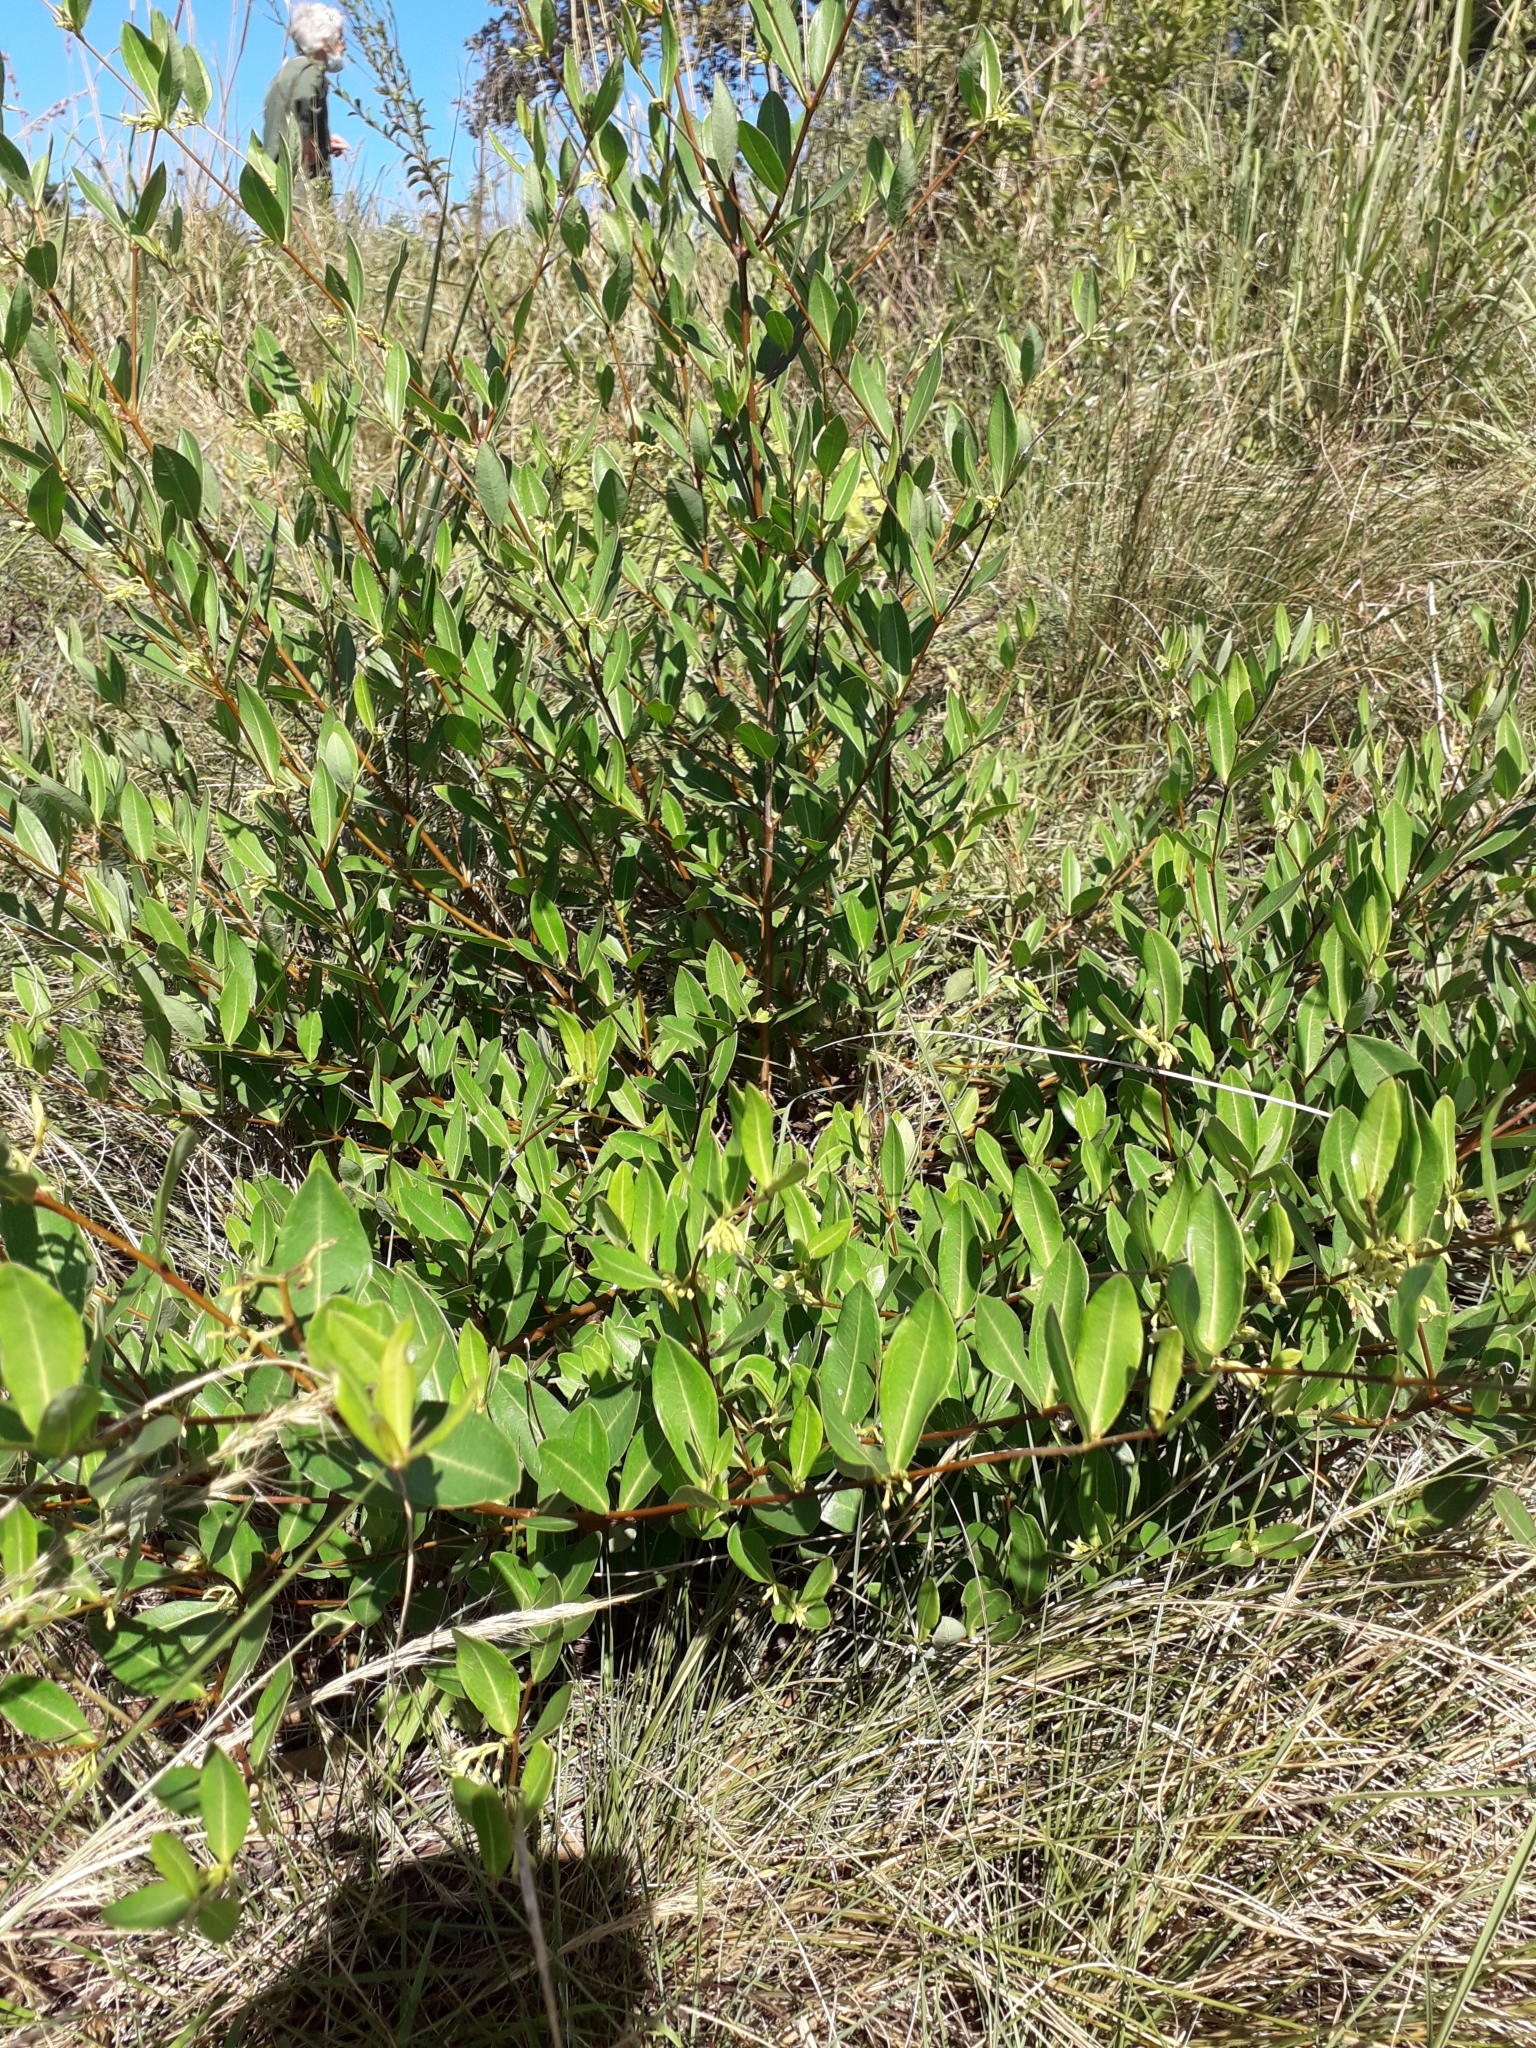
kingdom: Plantae
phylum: Tracheophyta
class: Magnoliopsida
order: Gentianales
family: Apocynaceae
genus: Cryptolepis
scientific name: Cryptolepis oblongifolia
